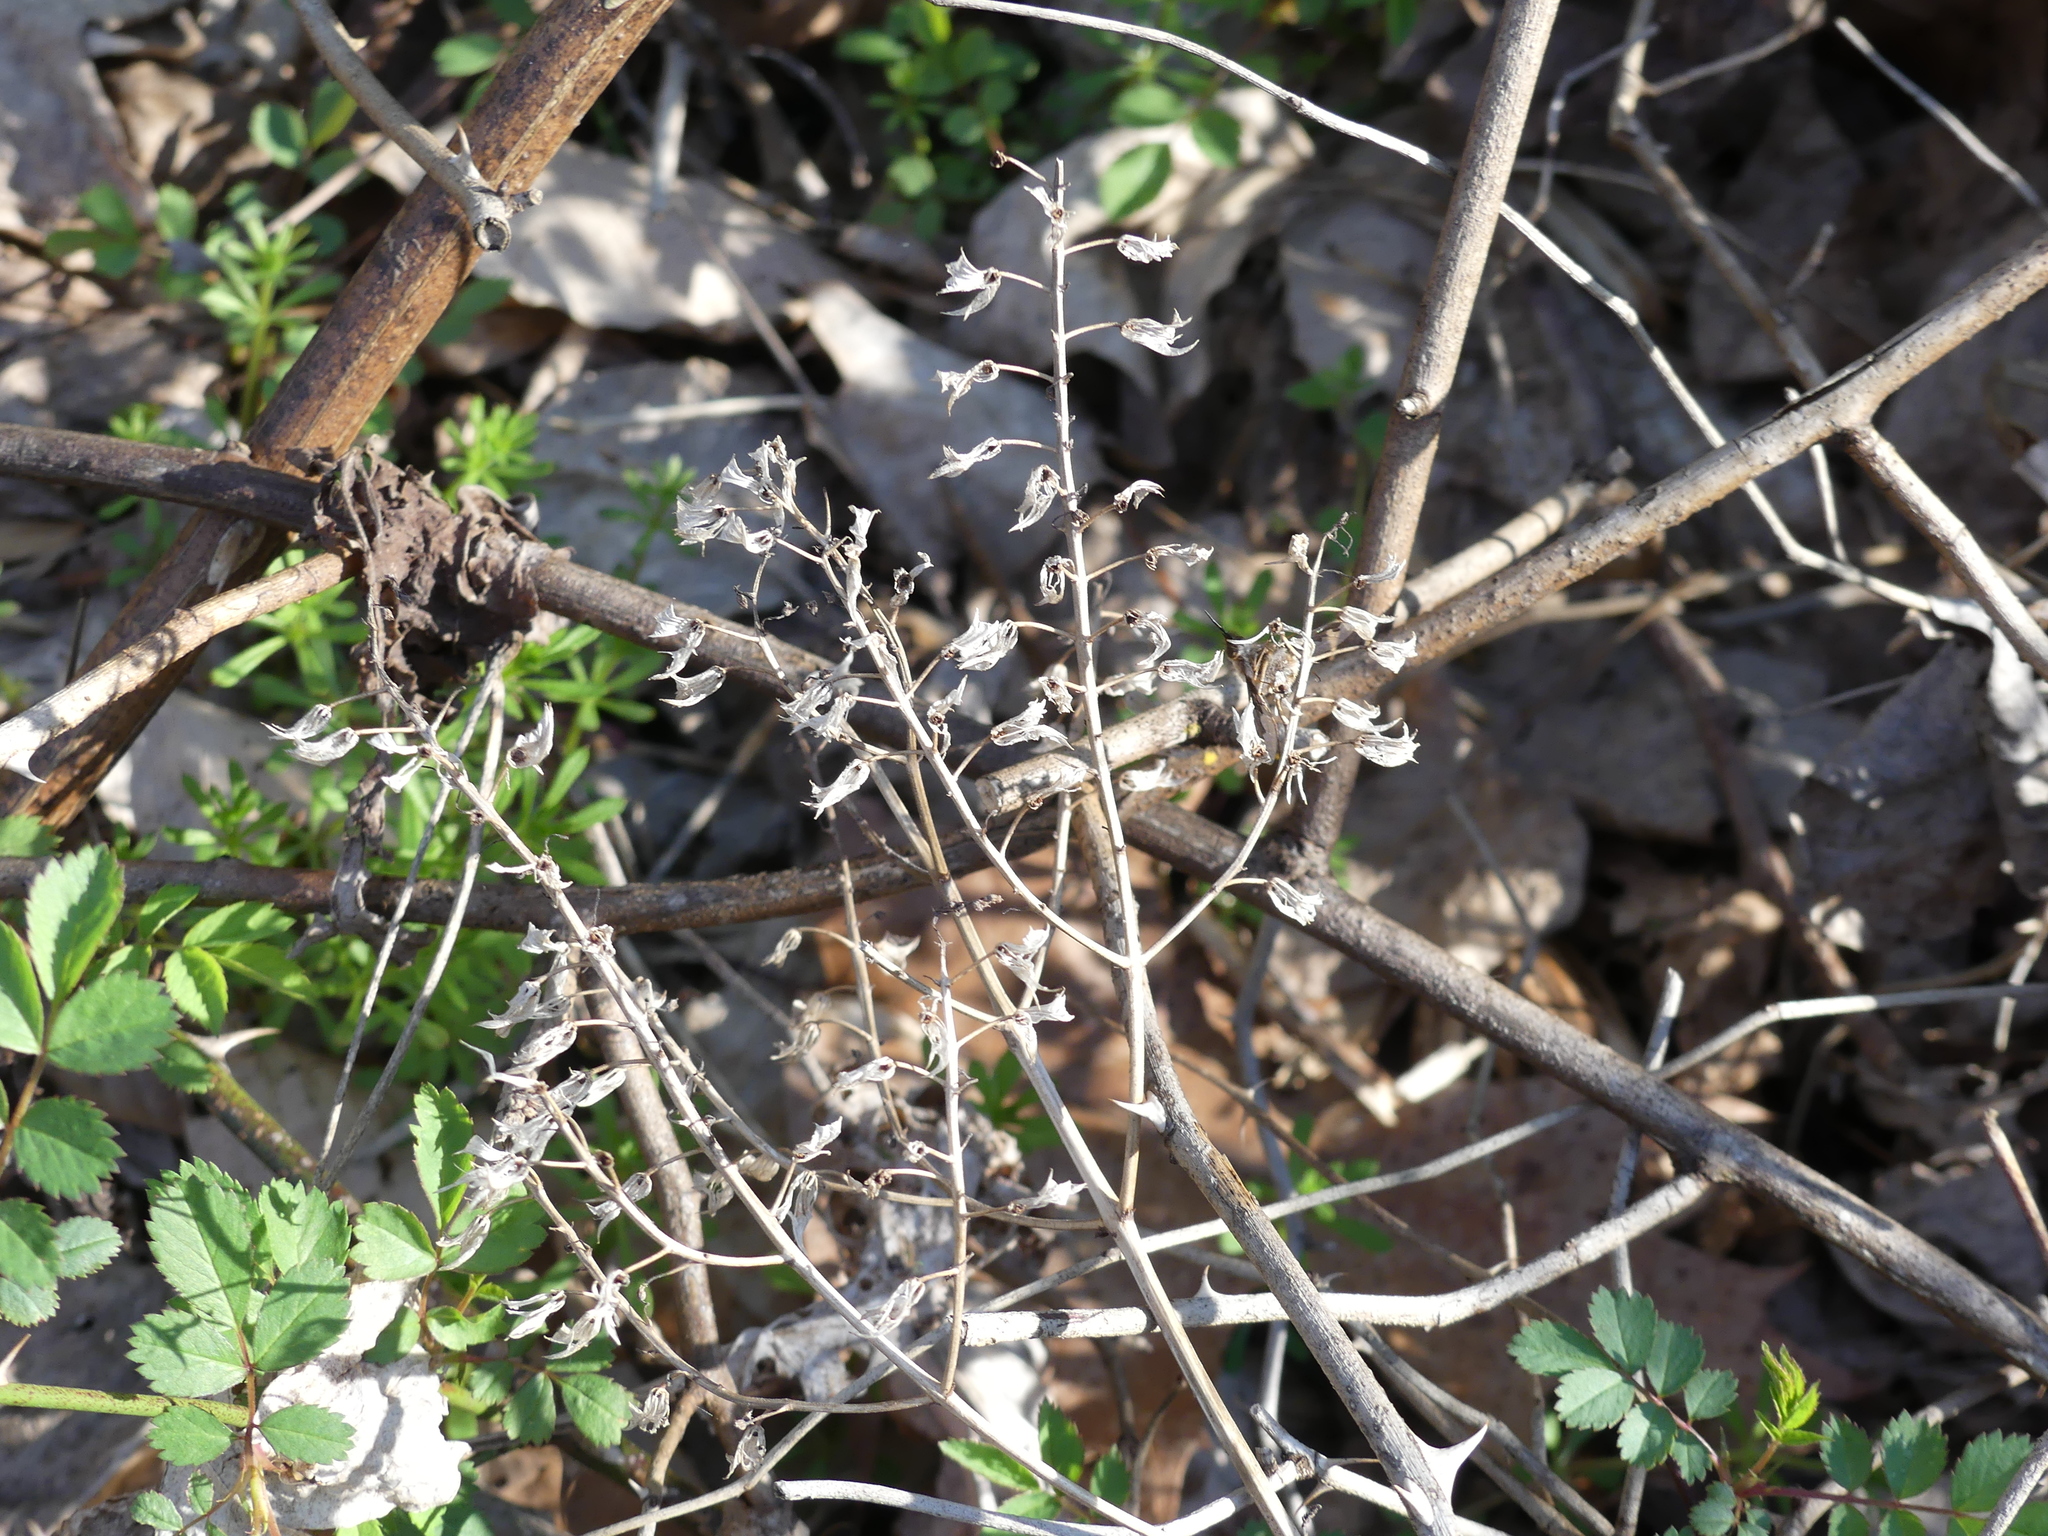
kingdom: Plantae
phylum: Tracheophyta
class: Magnoliopsida
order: Lamiales
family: Lamiaceae
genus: Perilla
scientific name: Perilla frutescens
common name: Perilla
